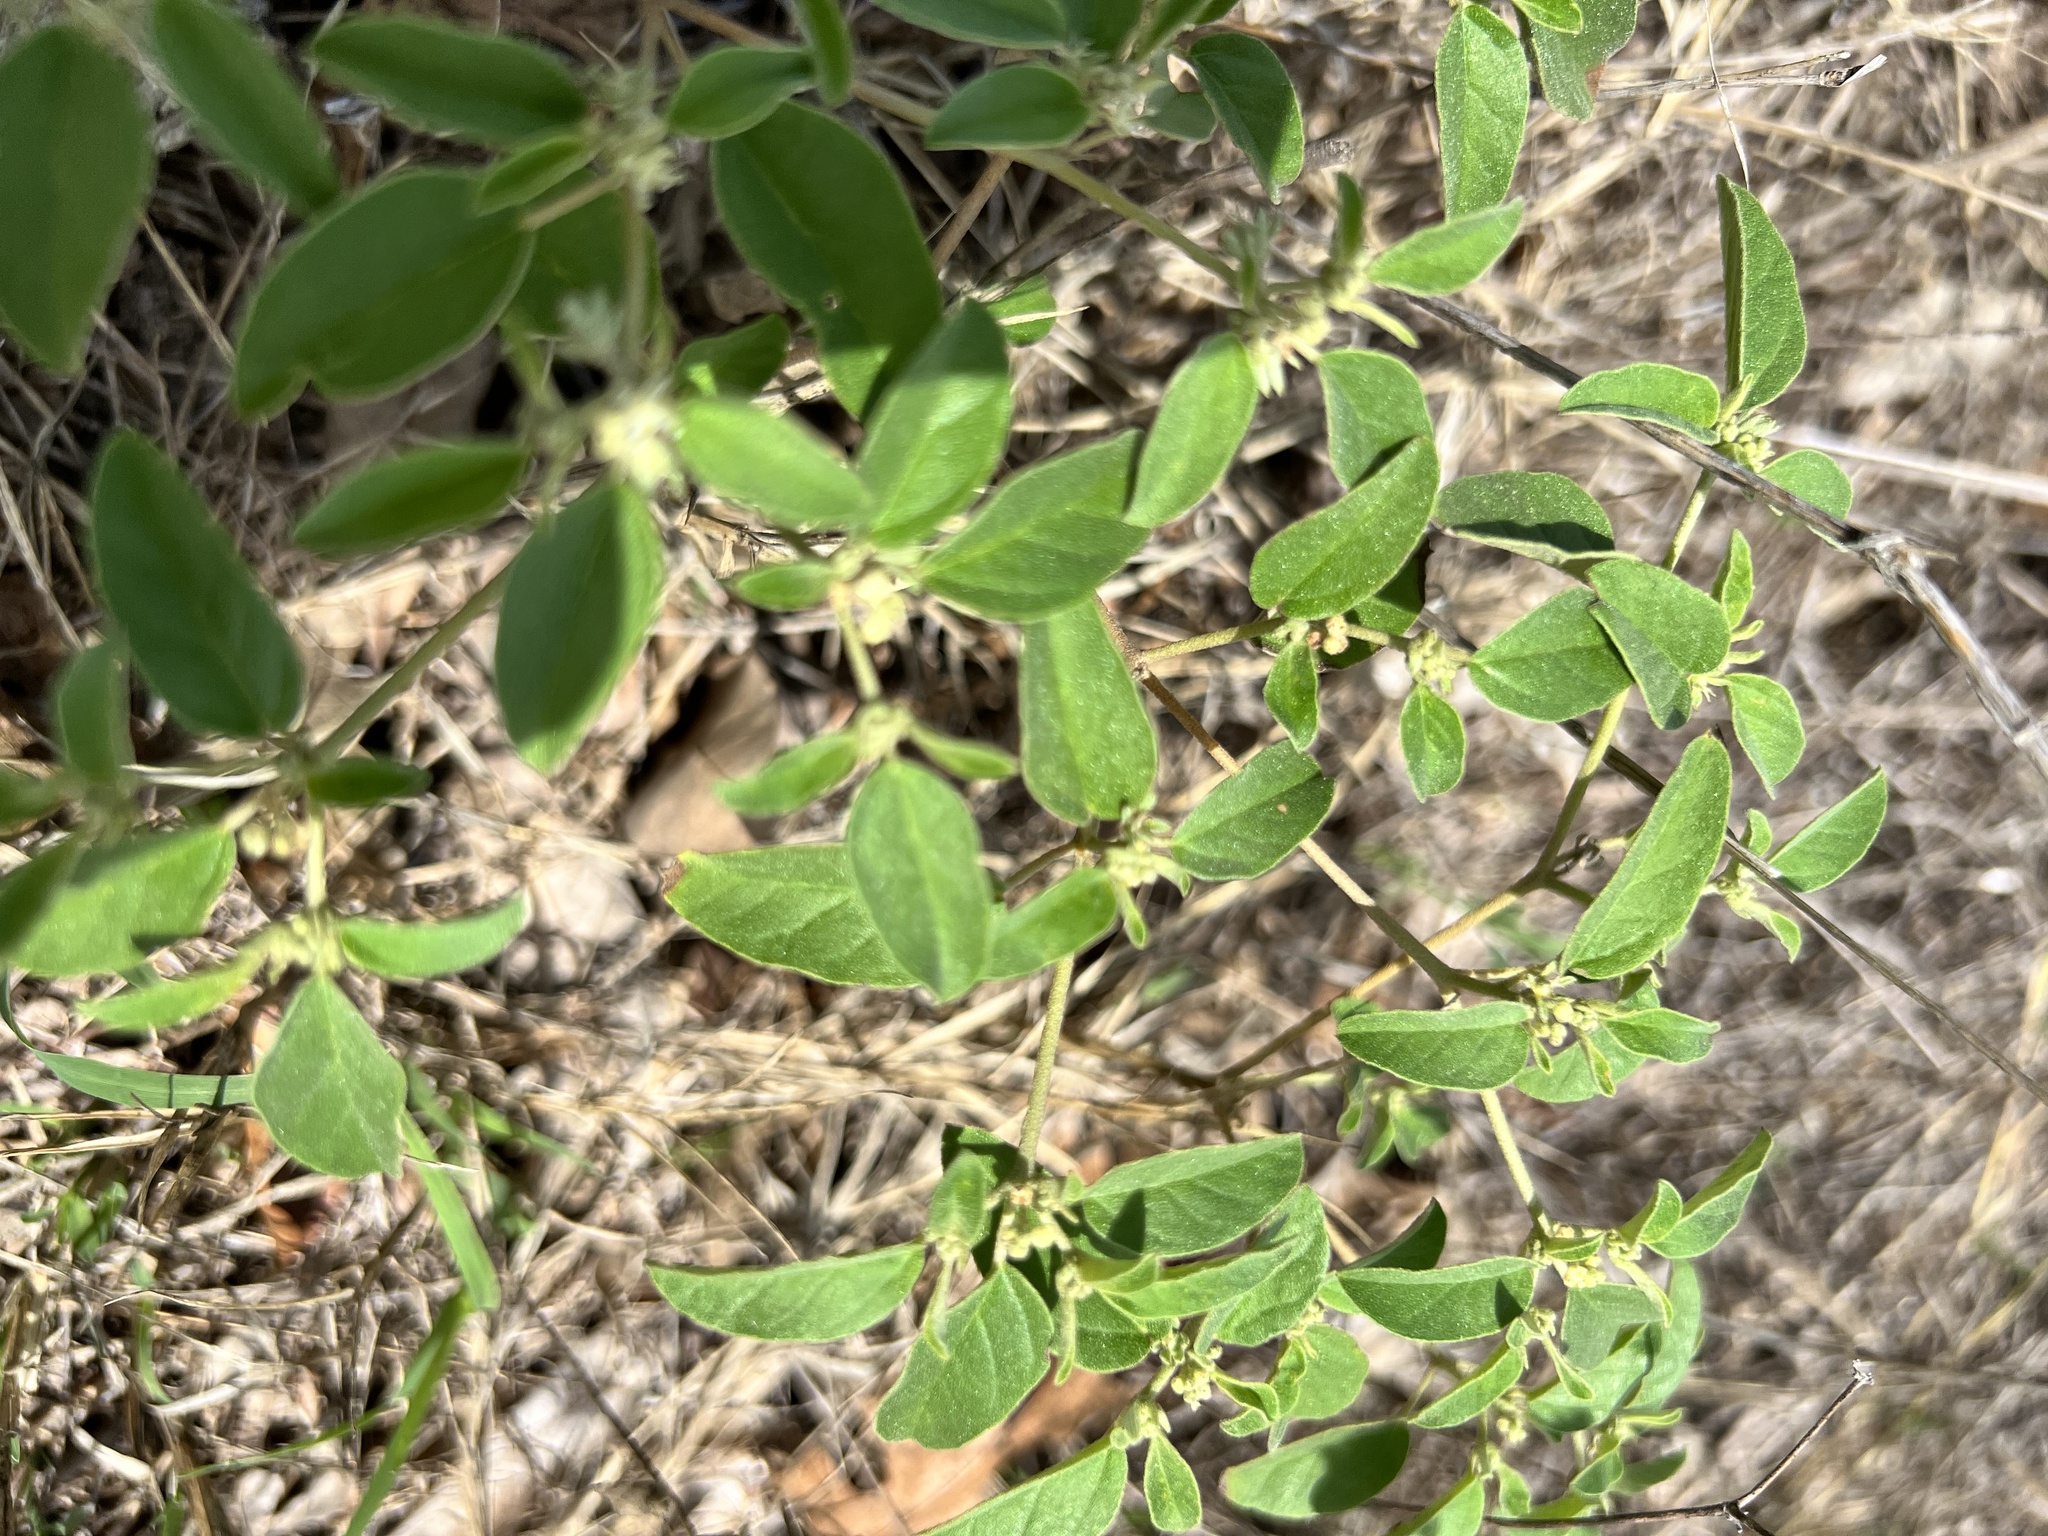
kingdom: Plantae
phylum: Tracheophyta
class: Magnoliopsida
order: Malpighiales
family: Euphorbiaceae
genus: Croton
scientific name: Croton monanthogynus
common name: One-seed croton
